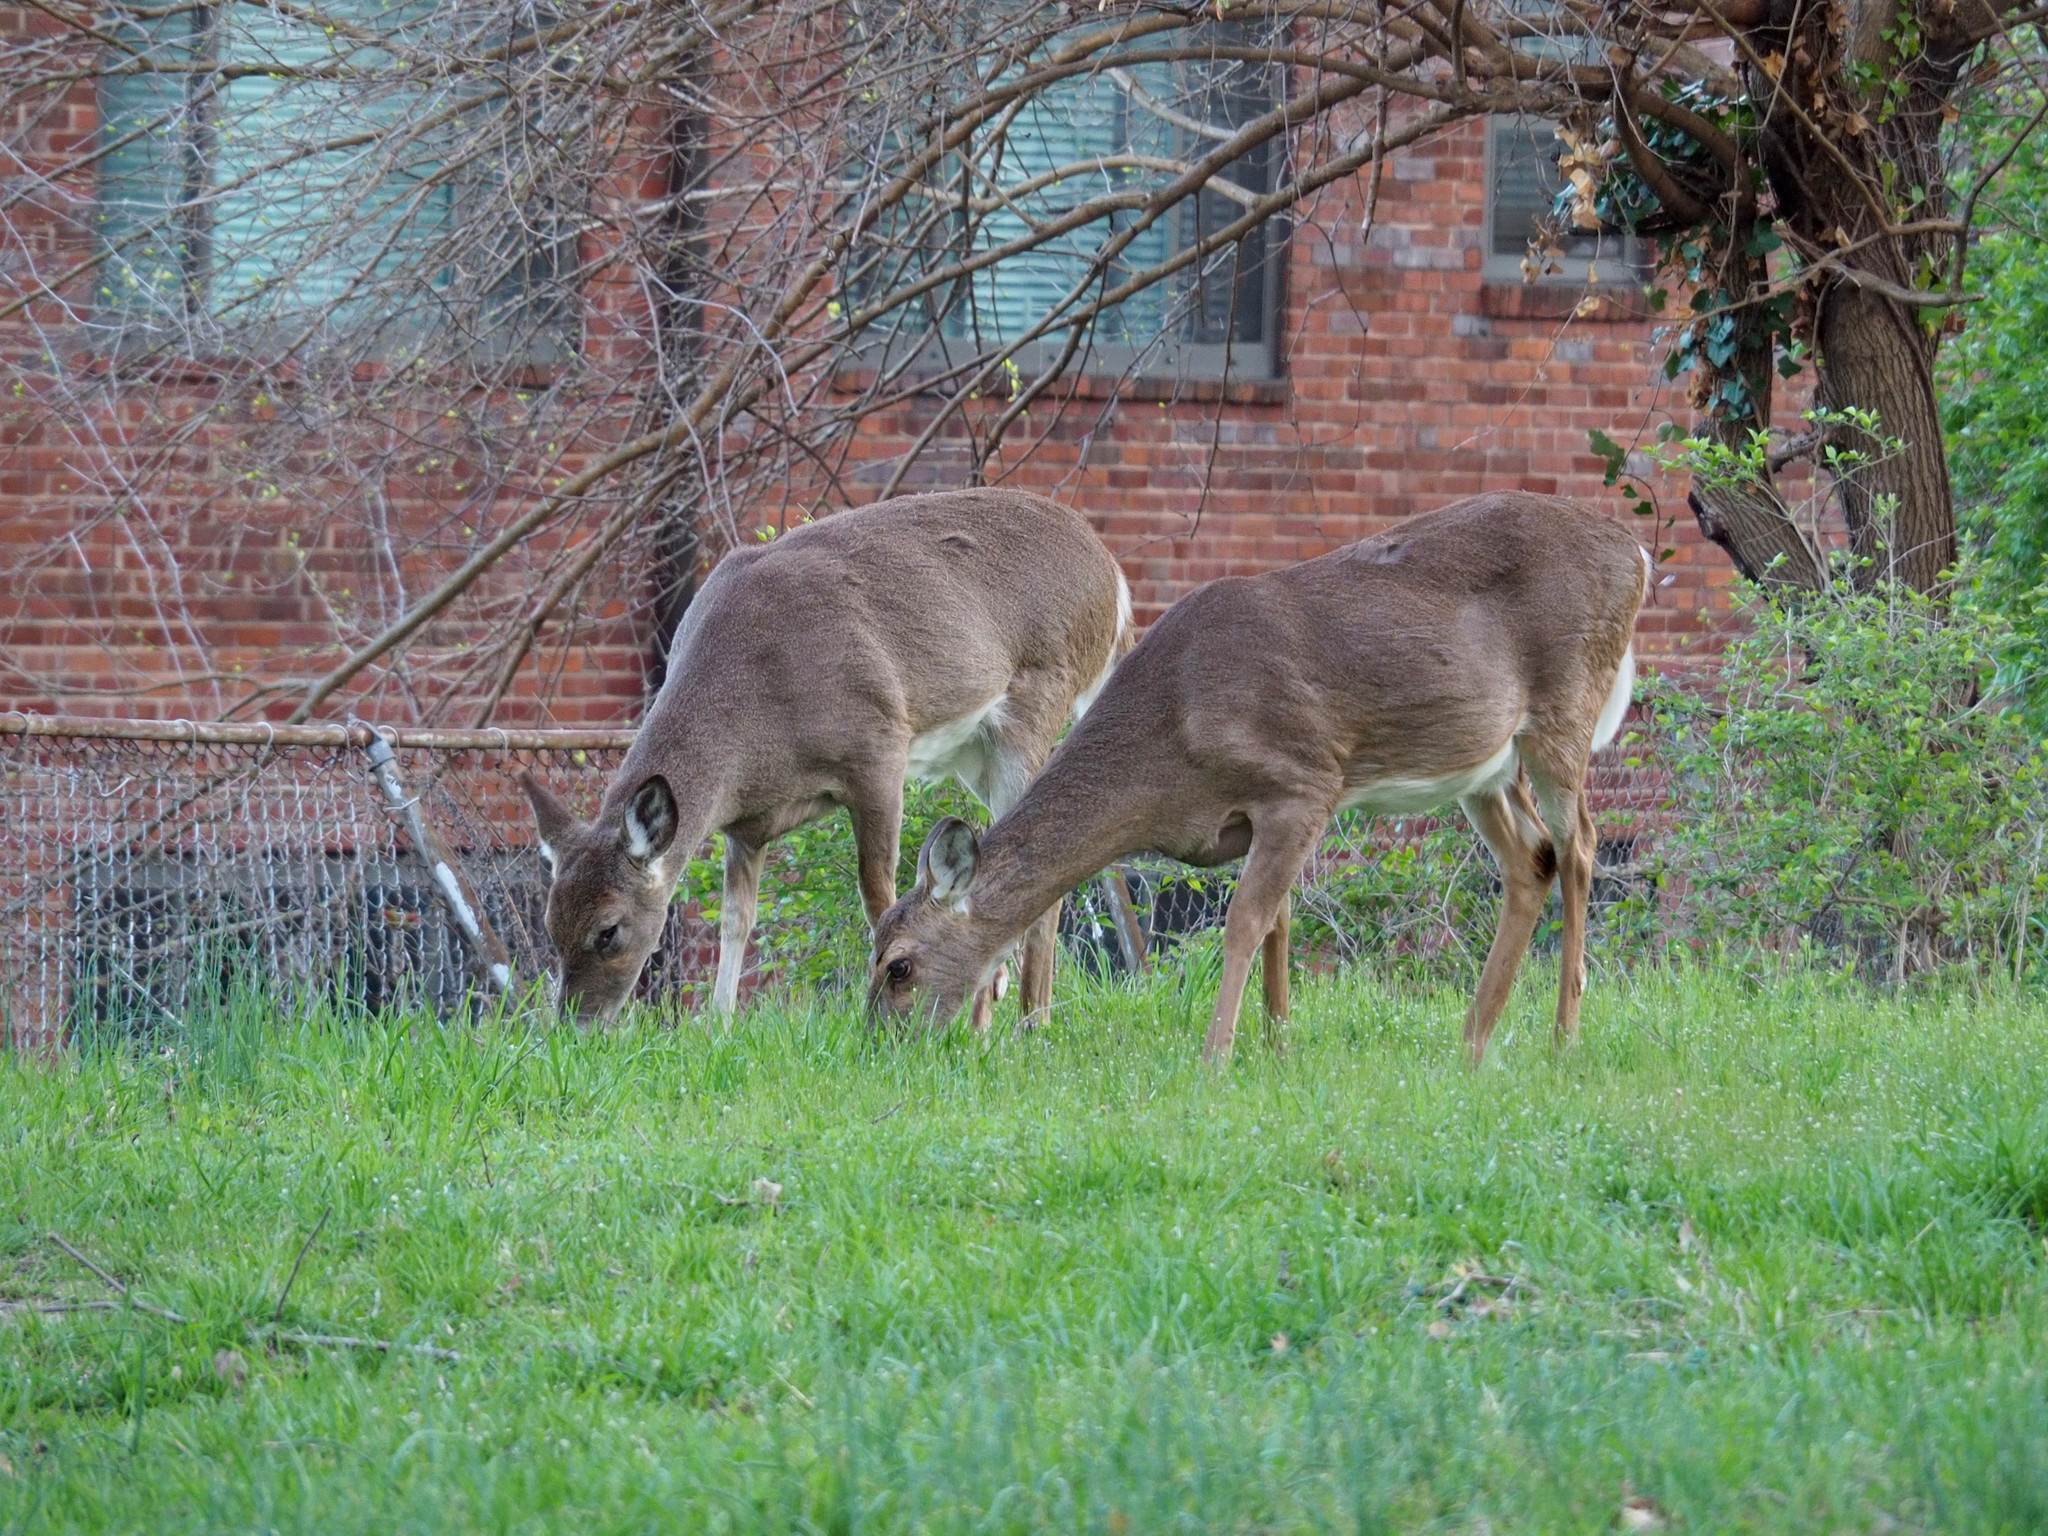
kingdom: Animalia
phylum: Chordata
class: Mammalia
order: Artiodactyla
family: Cervidae
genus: Odocoileus
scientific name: Odocoileus virginianus
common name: White-tailed deer
